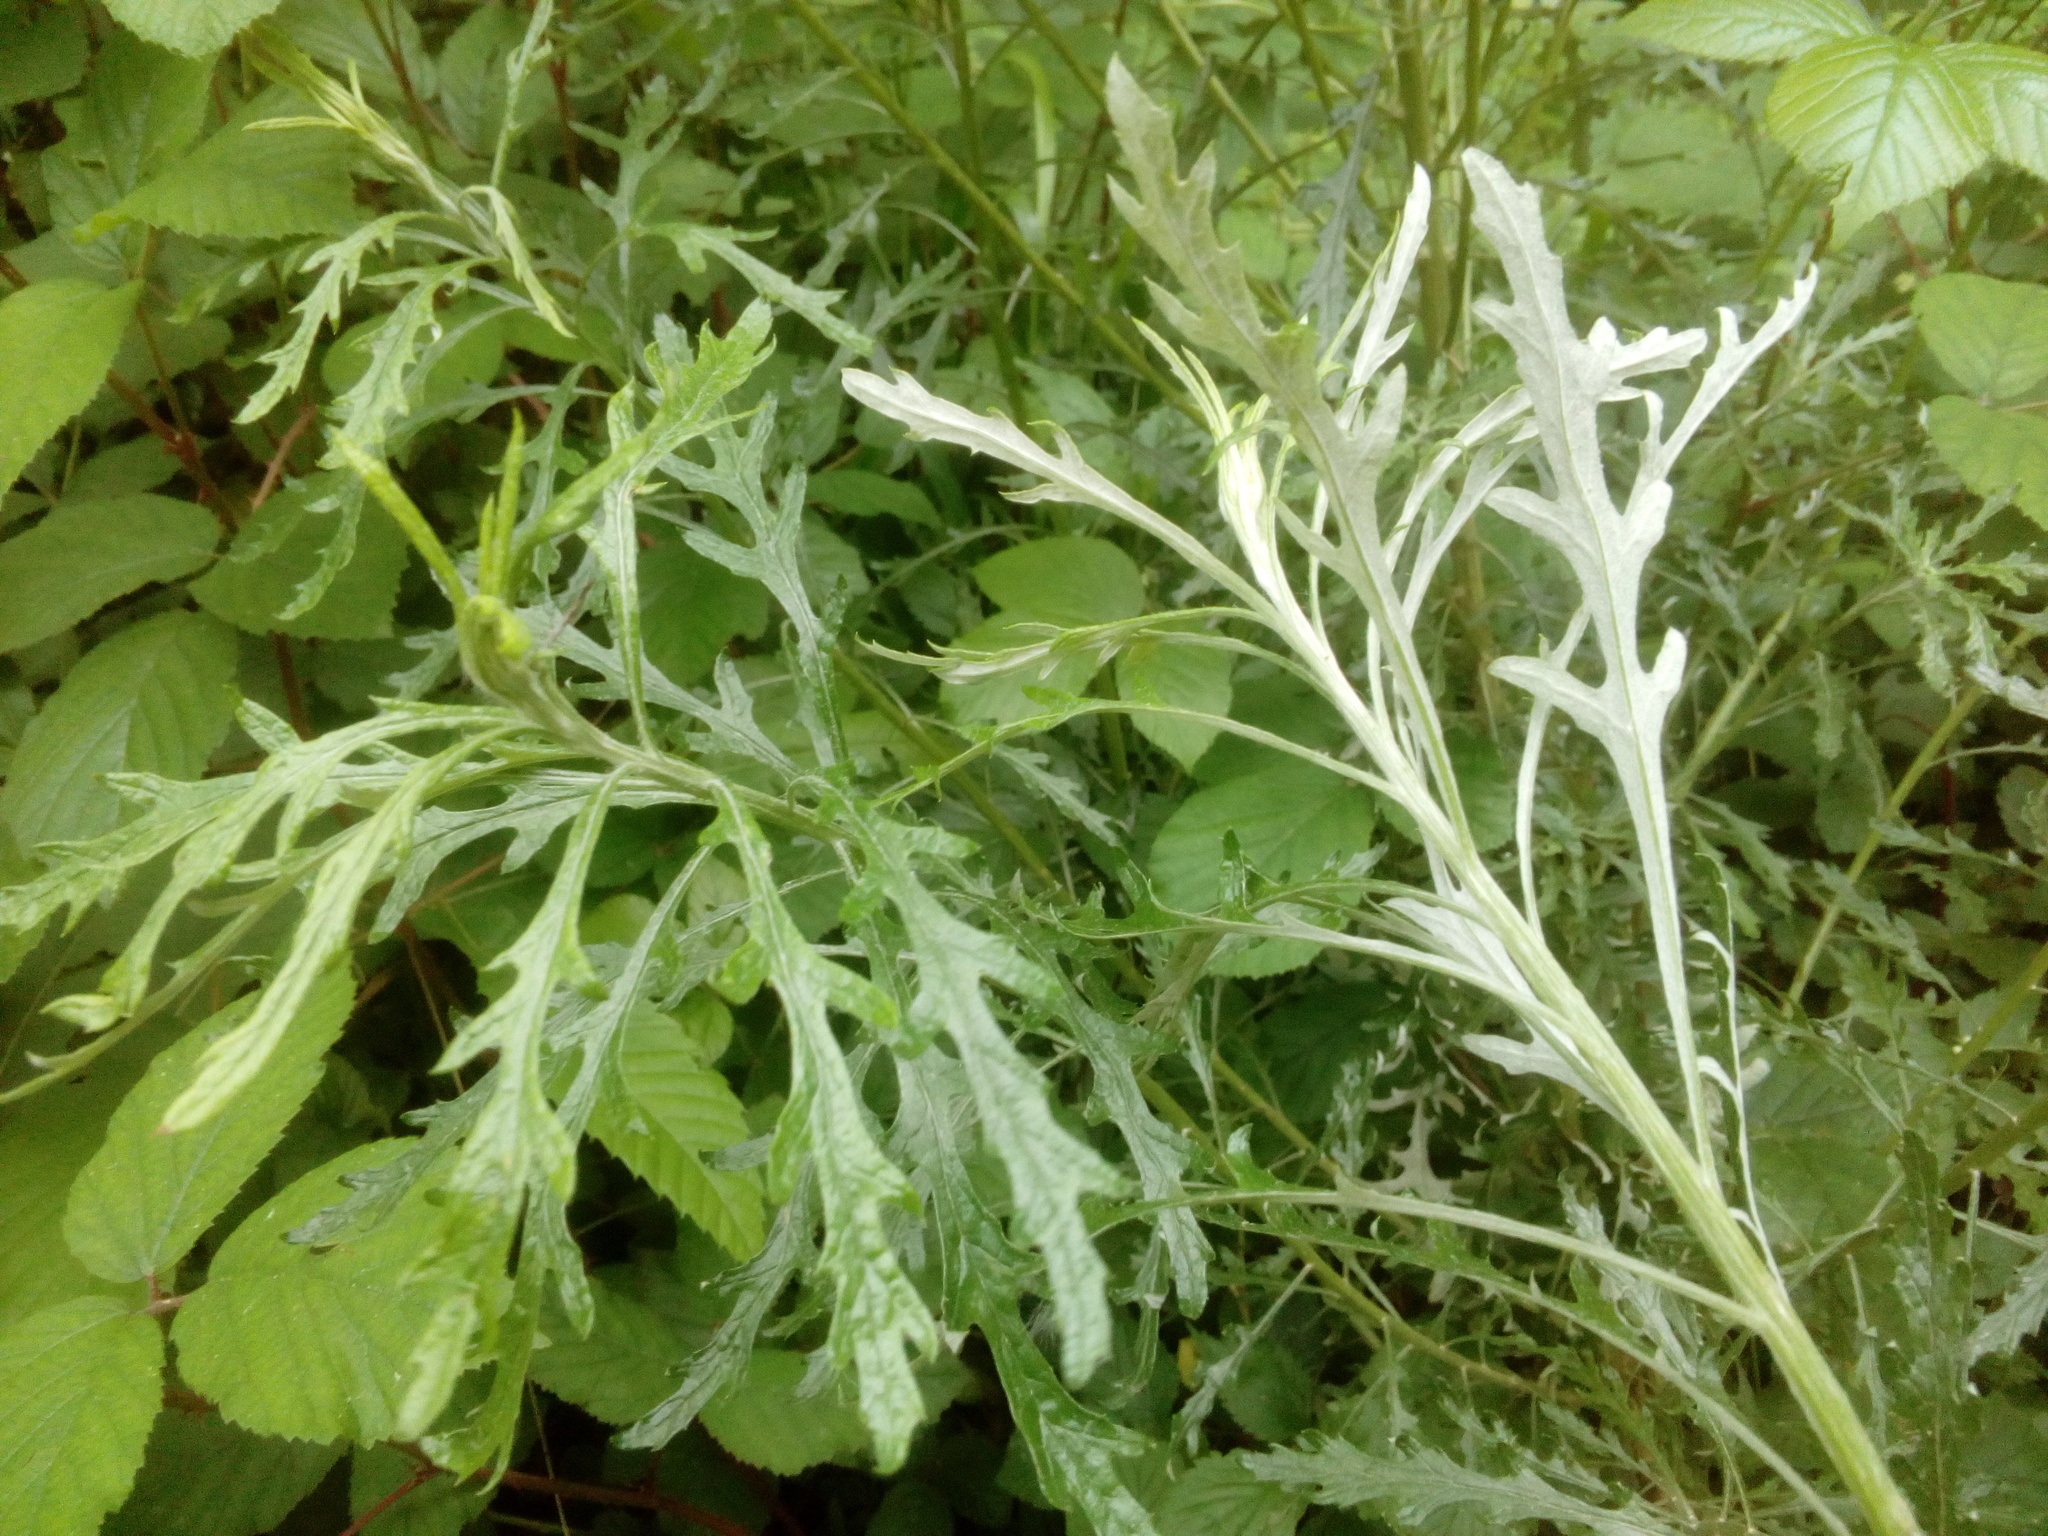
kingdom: Plantae
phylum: Tracheophyta
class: Magnoliopsida
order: Asterales
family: Asteraceae
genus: Senecio
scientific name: Senecio pterophorus
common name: Shoddy ragwort
